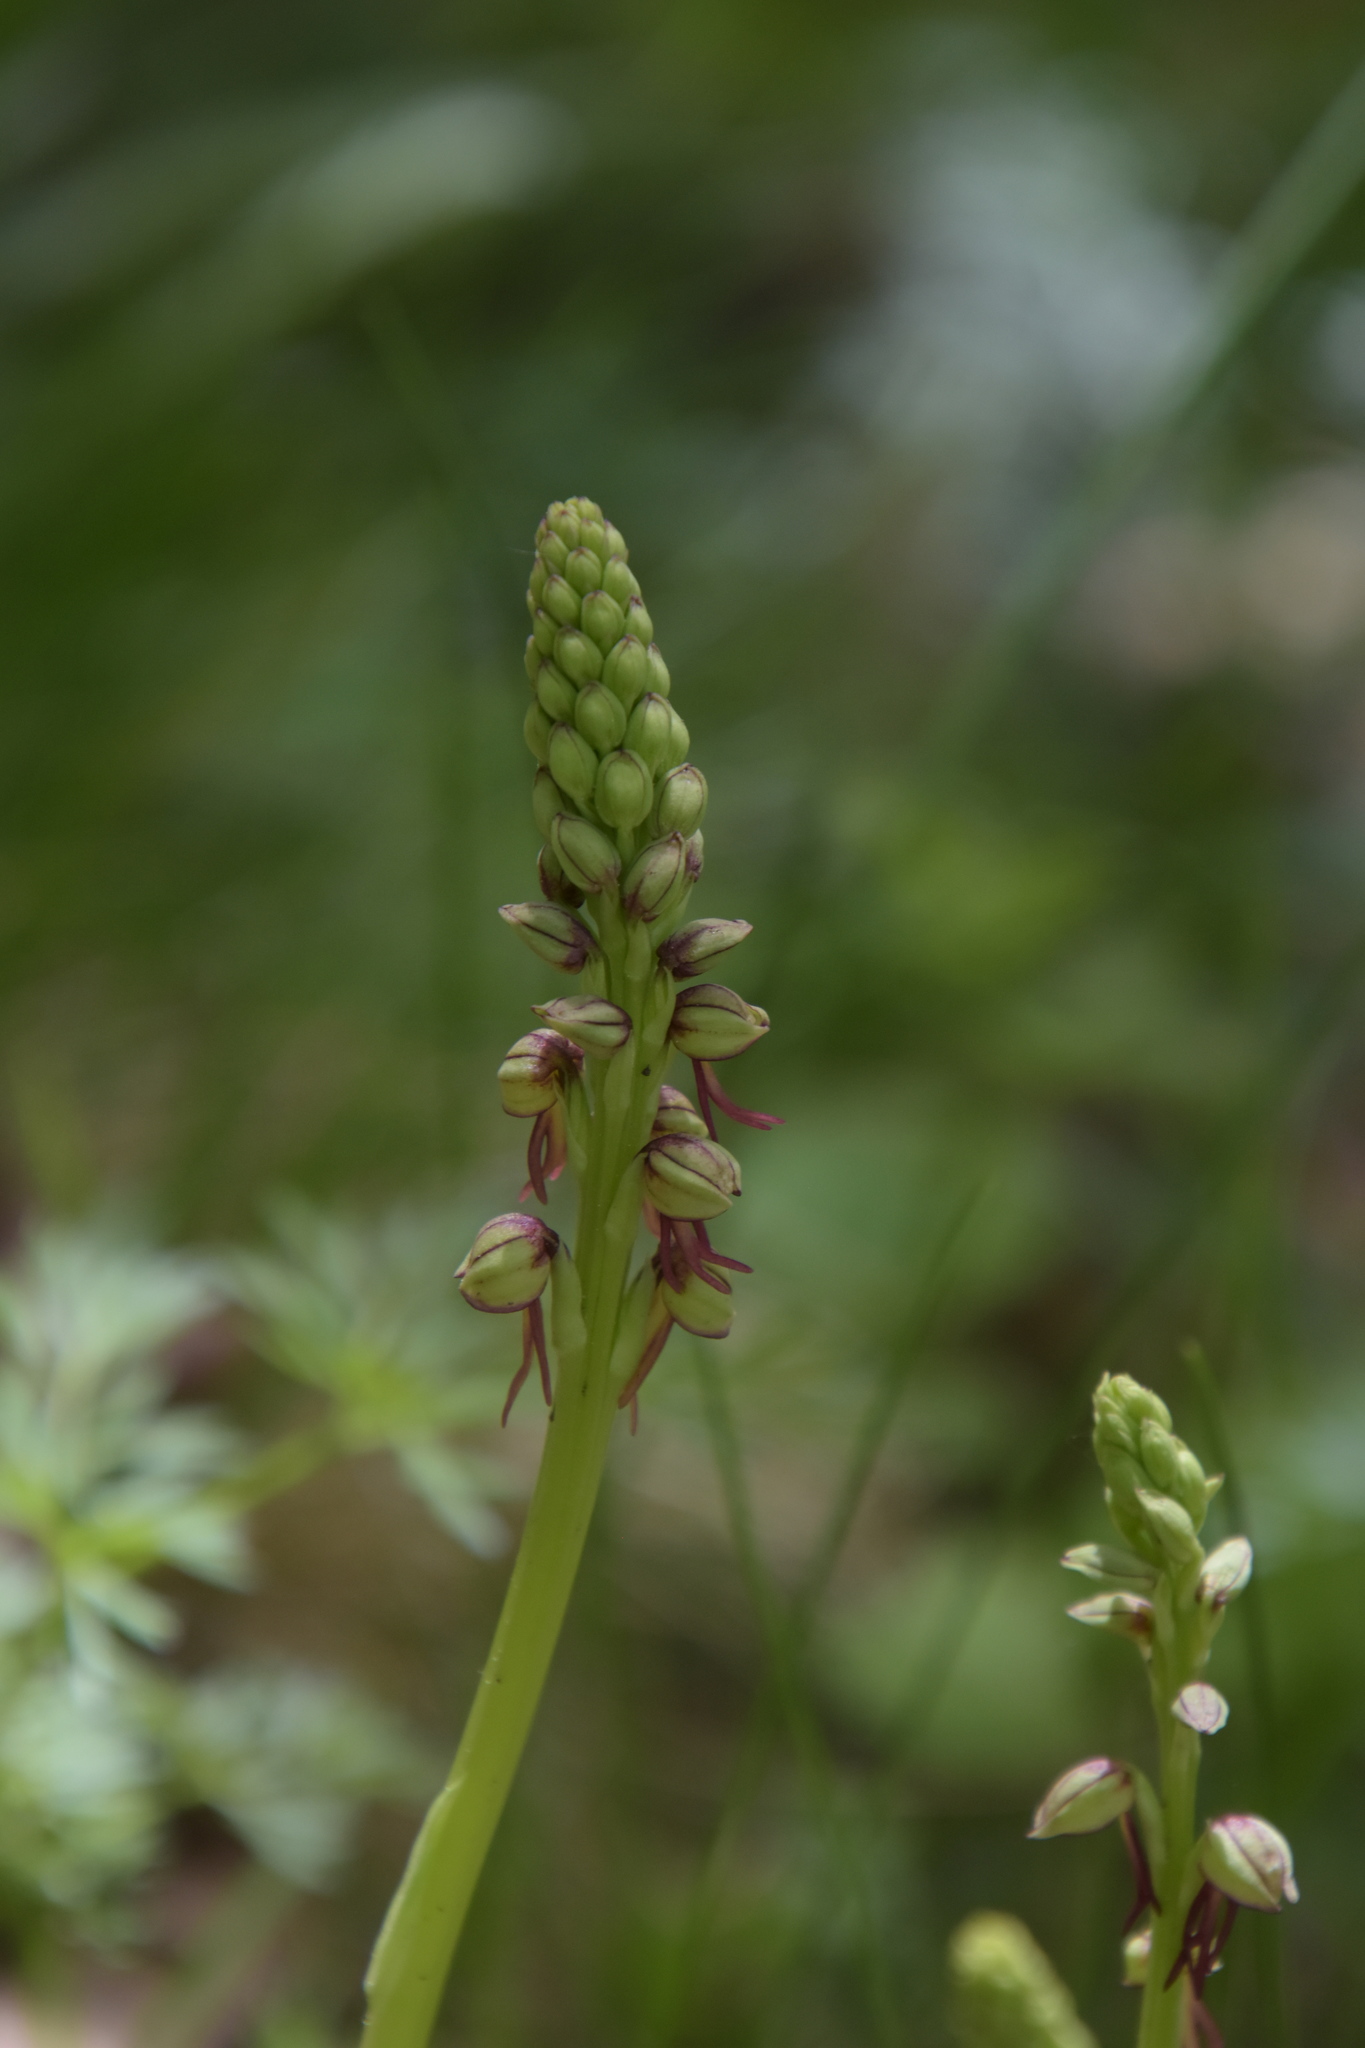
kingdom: Plantae
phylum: Tracheophyta
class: Liliopsida
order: Asparagales
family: Orchidaceae
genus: Orchis
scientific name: Orchis anthropophora
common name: Man orchid
